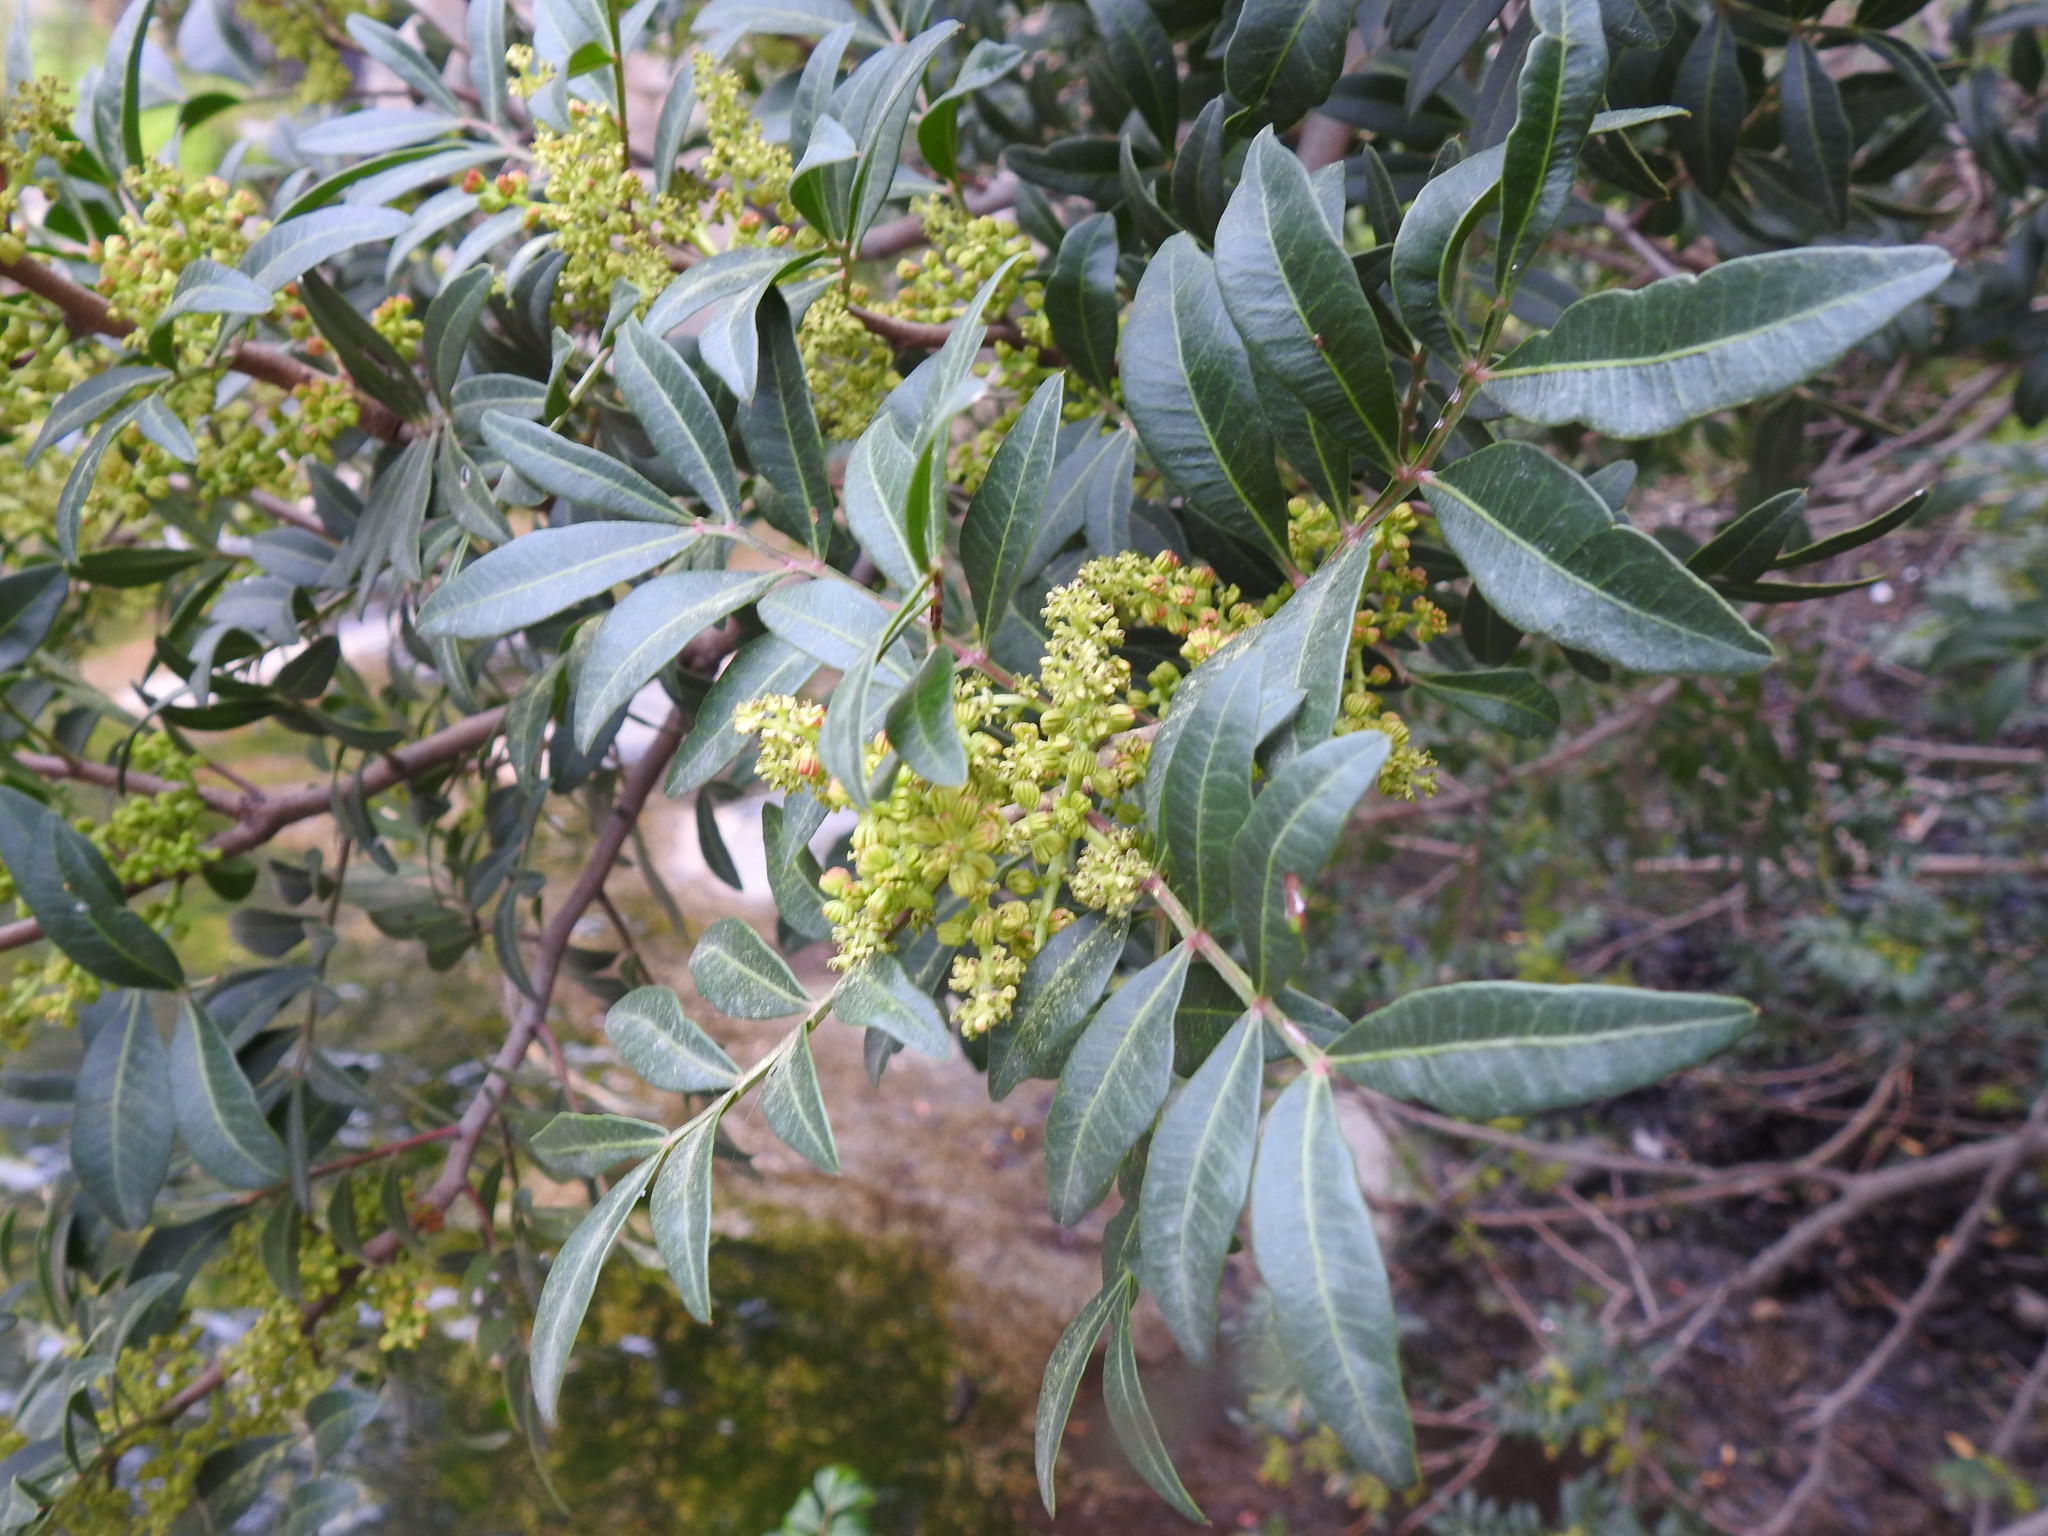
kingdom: Plantae
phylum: Tracheophyta
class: Magnoliopsida
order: Sapindales
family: Anacardiaceae
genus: Pistacia
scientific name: Pistacia lentiscus
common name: Lentisk
